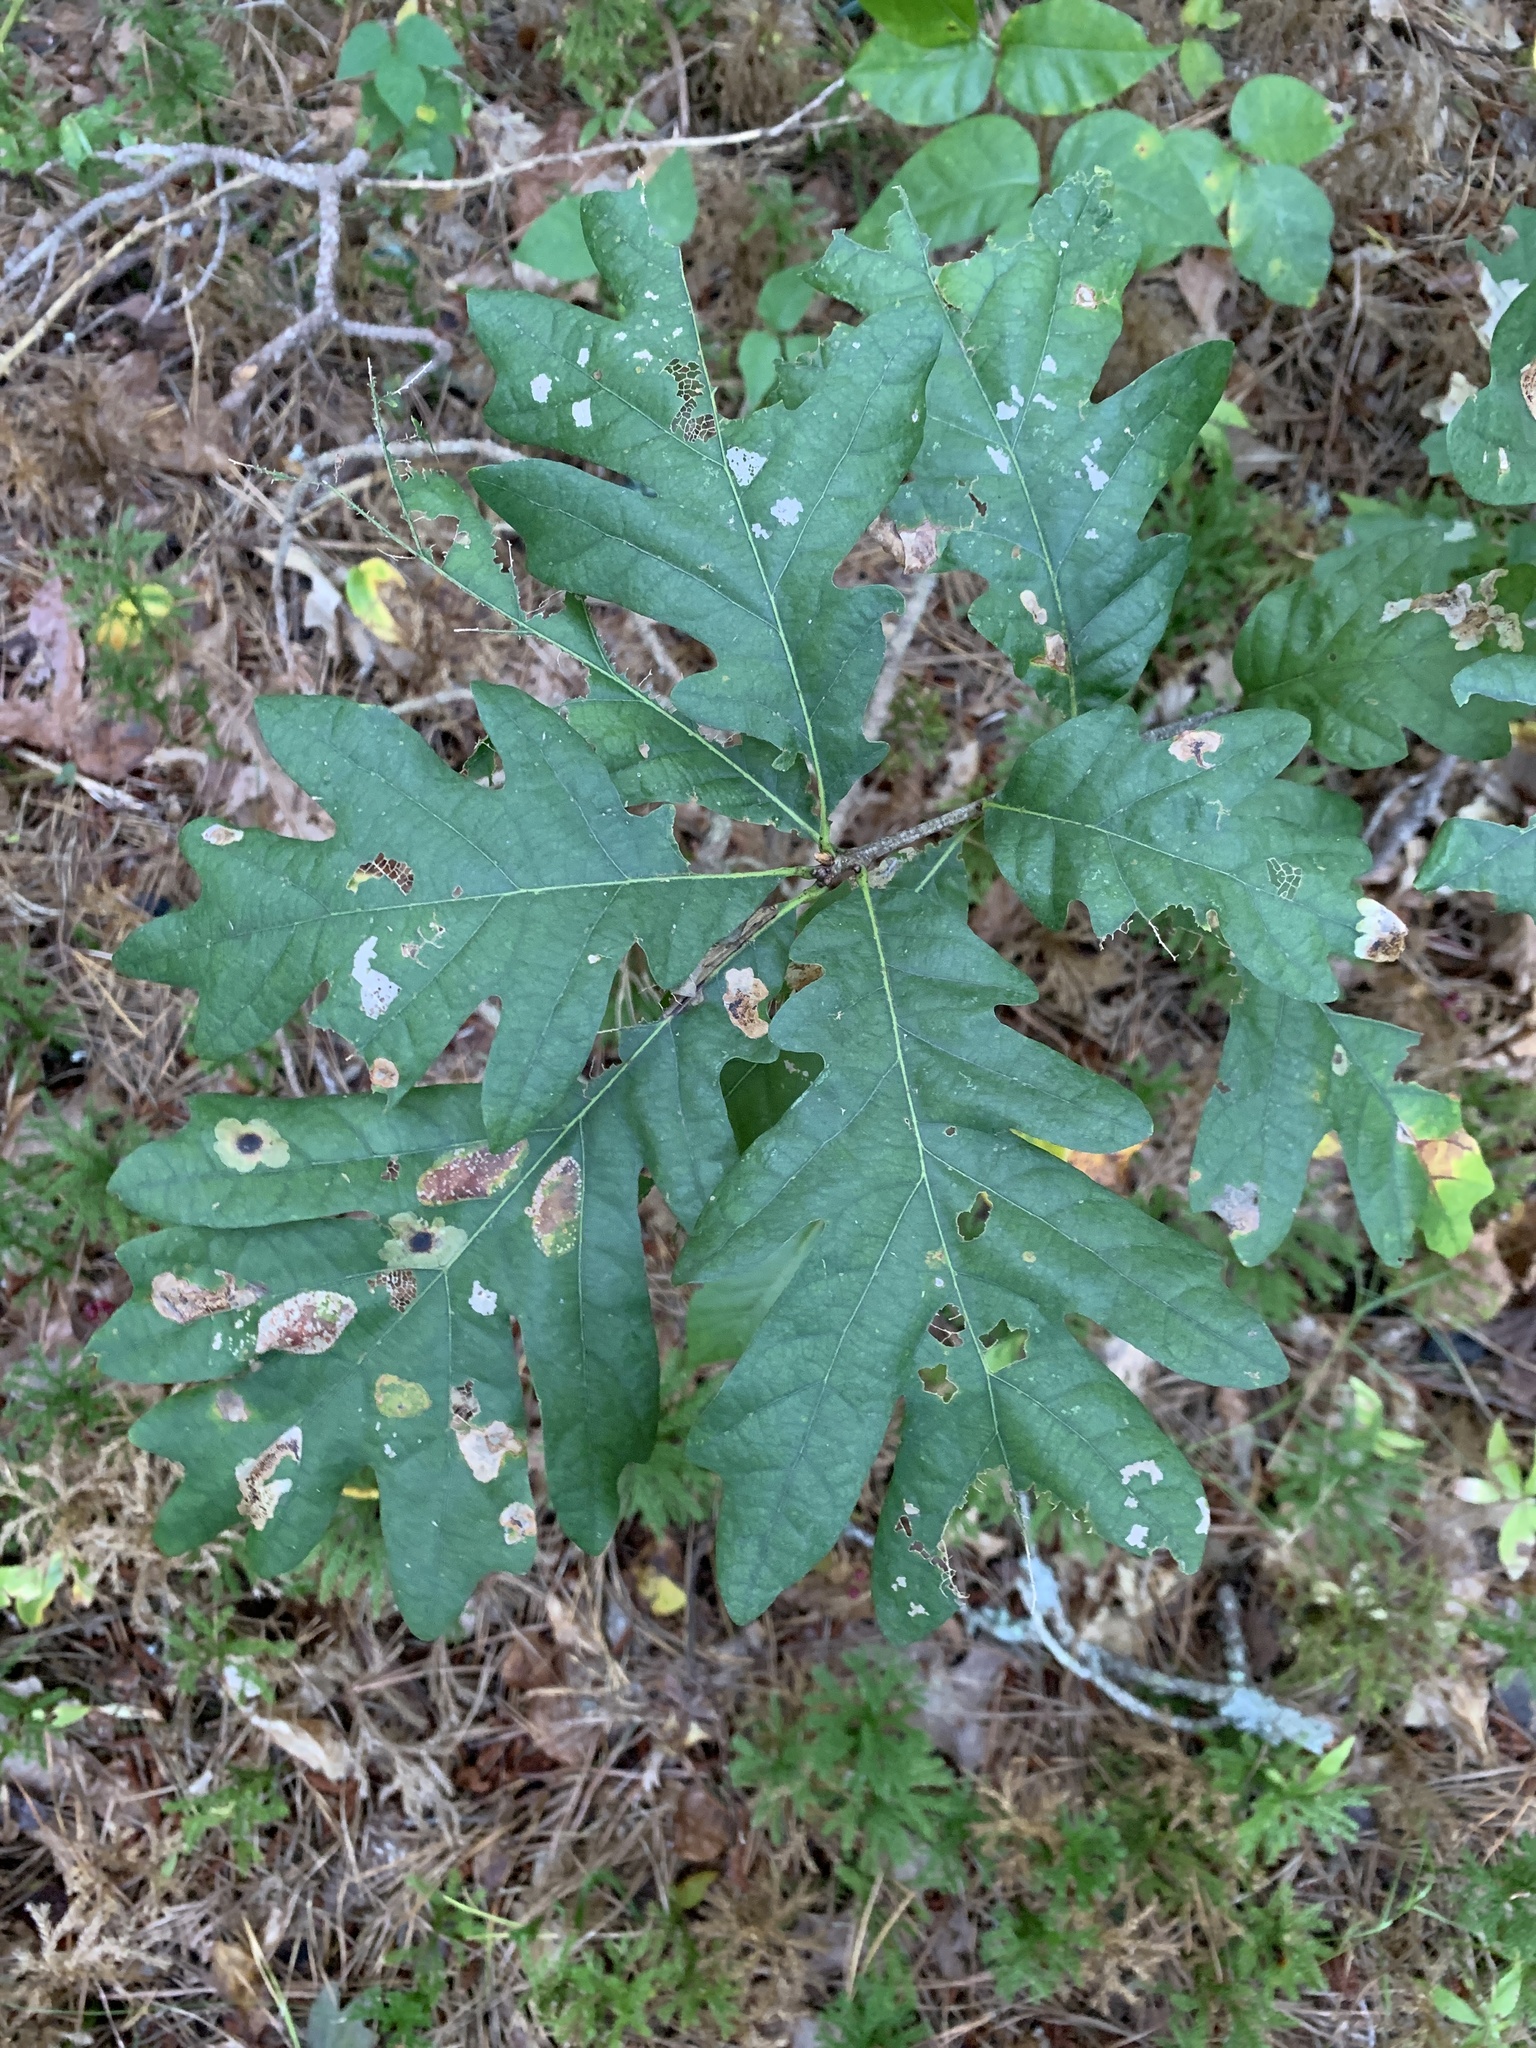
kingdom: Plantae
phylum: Tracheophyta
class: Magnoliopsida
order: Fagales
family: Fagaceae
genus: Quercus
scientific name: Quercus alba
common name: White oak
